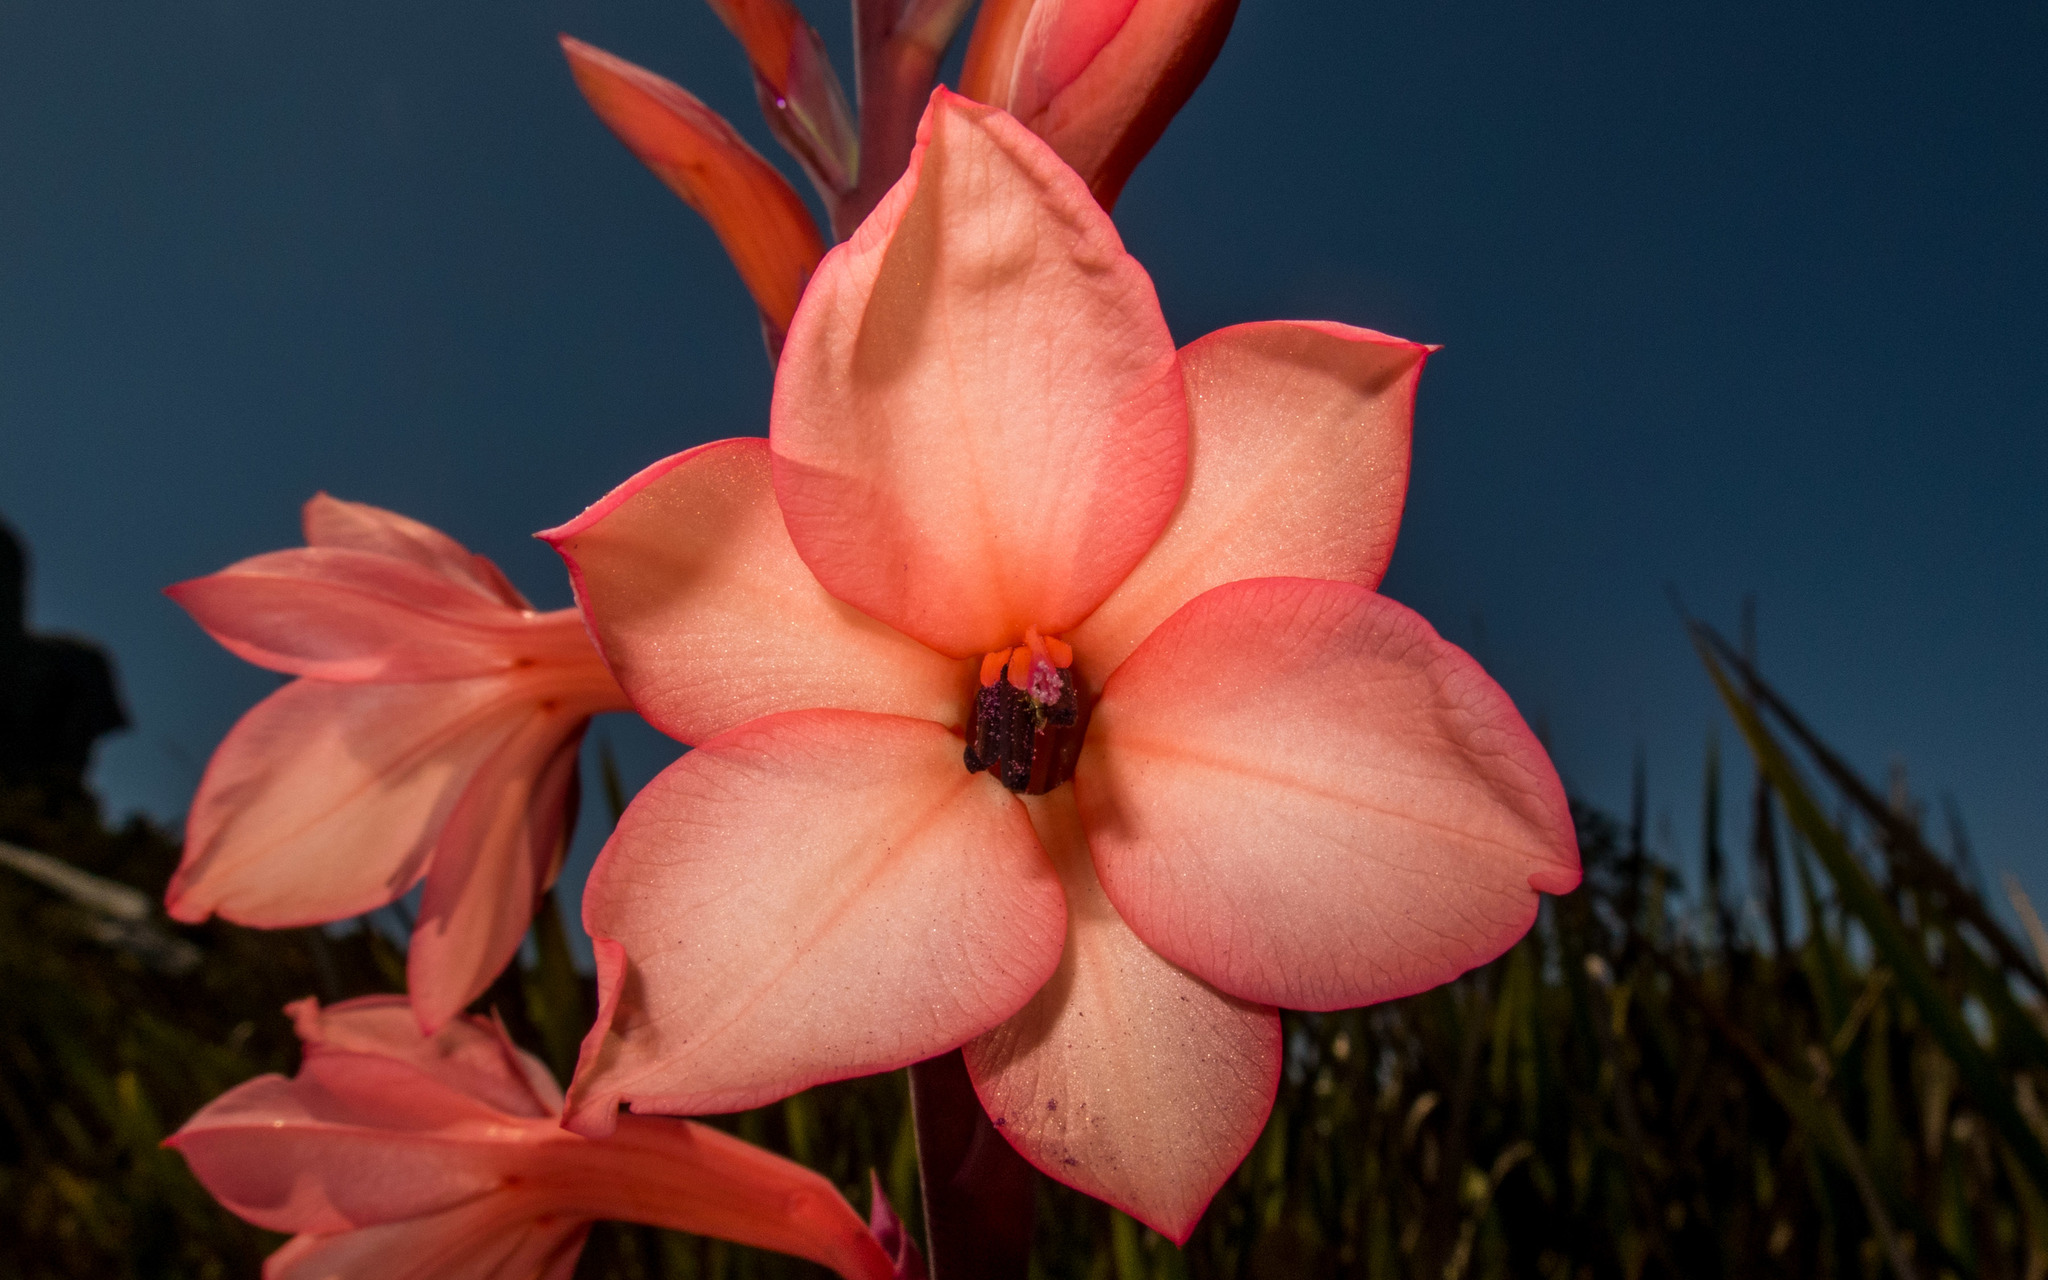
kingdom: Plantae
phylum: Tracheophyta
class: Liliopsida
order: Asparagales
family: Iridaceae
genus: Watsonia
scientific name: Watsonia tabularis
